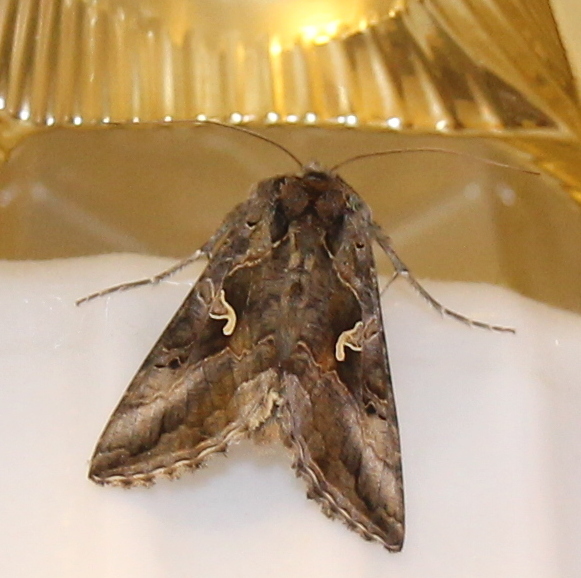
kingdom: Animalia
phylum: Arthropoda
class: Insecta
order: Lepidoptera
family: Noctuidae
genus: Autographa
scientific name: Autographa gamma
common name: Silver y
